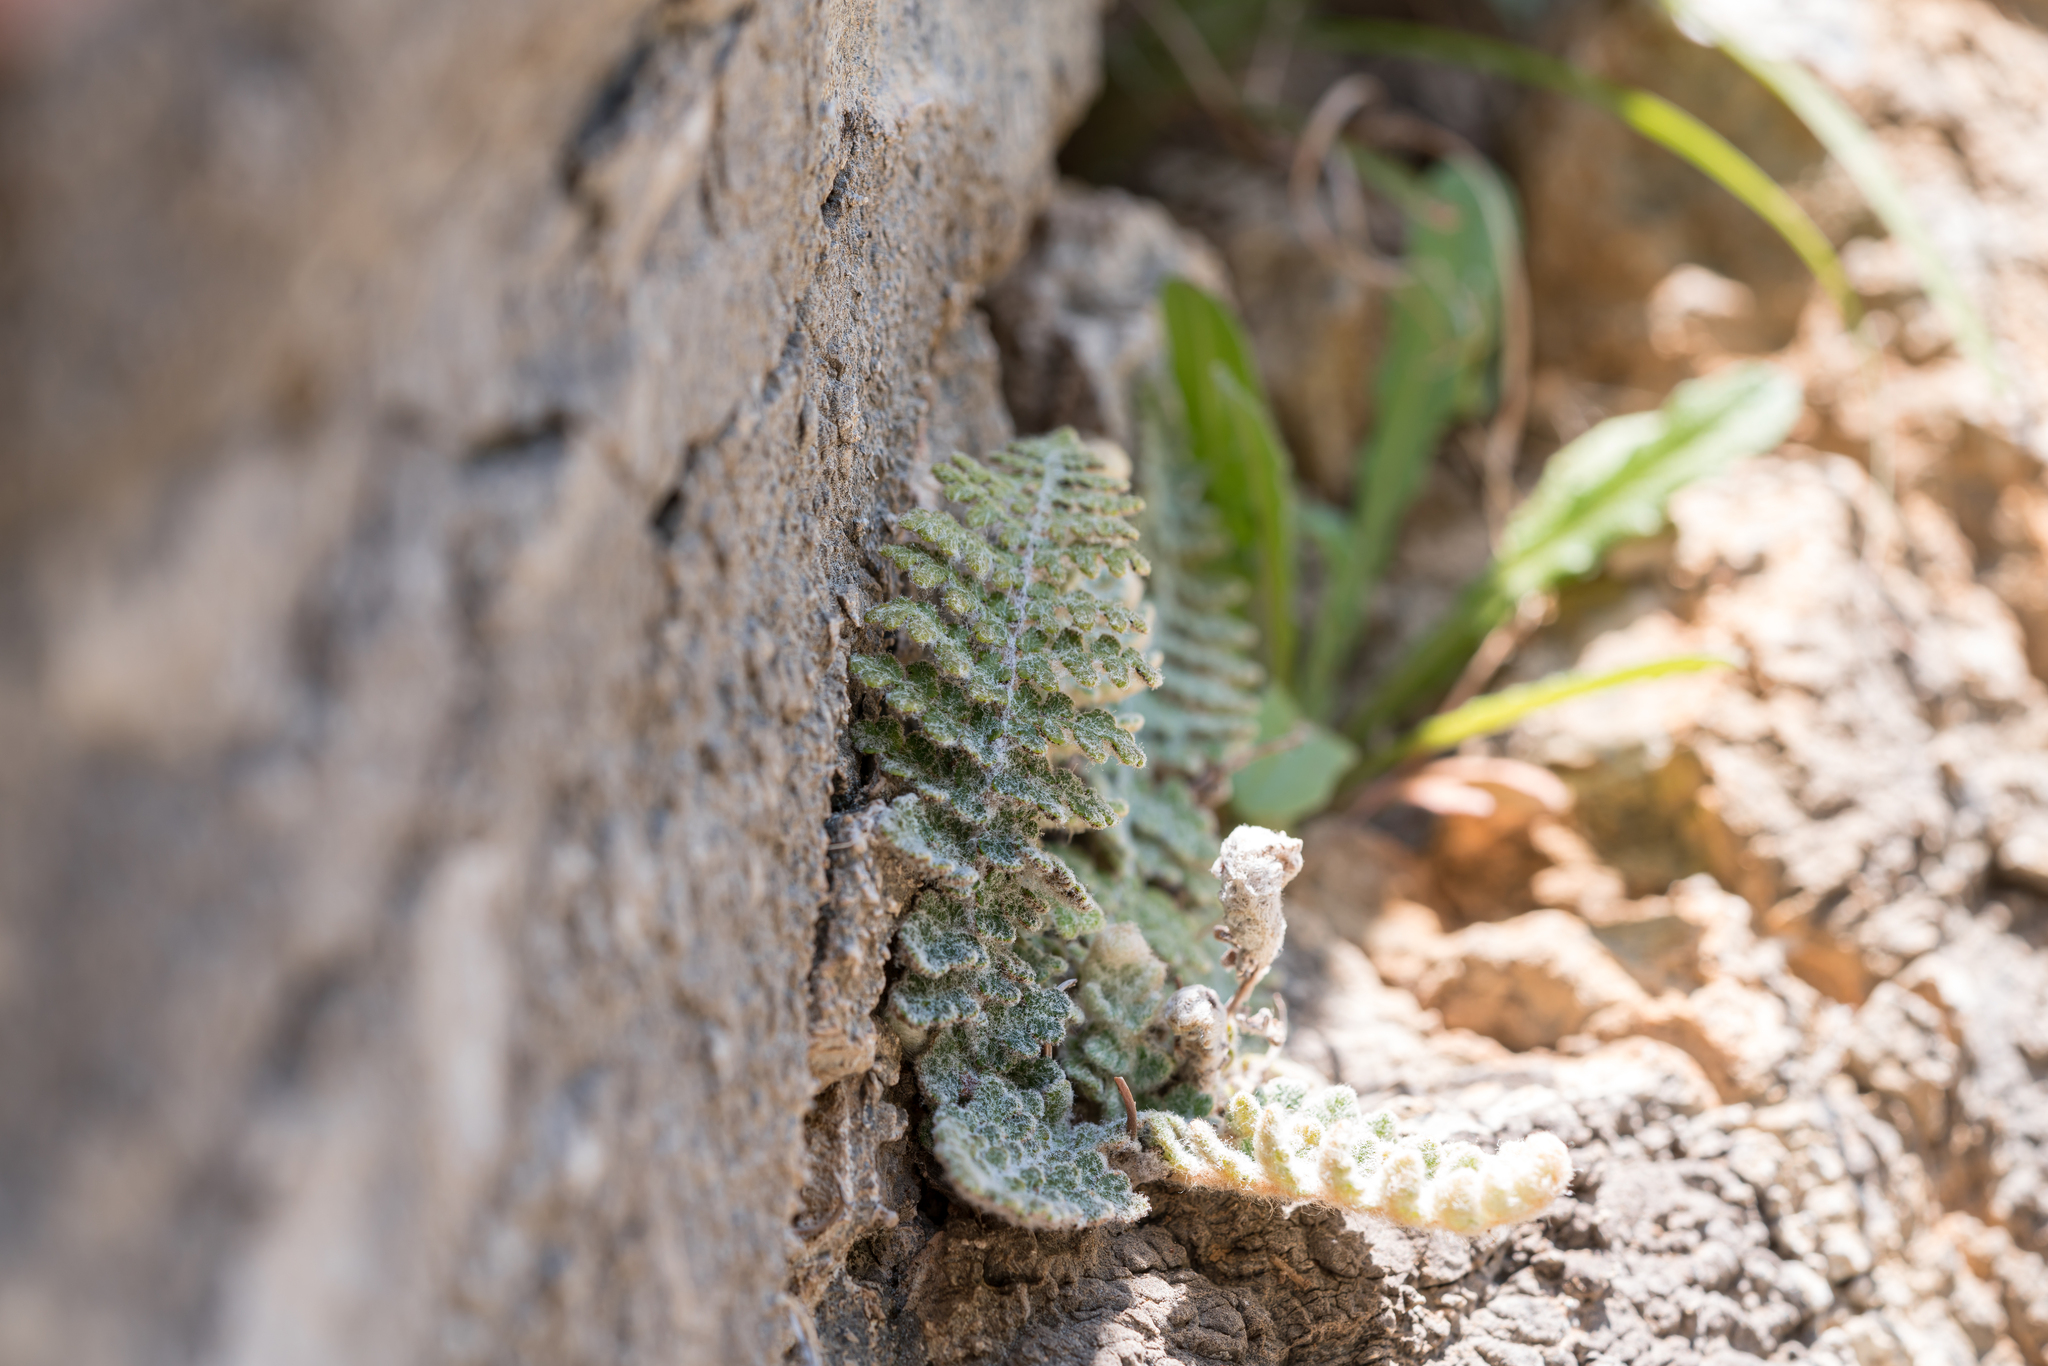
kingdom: Plantae
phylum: Tracheophyta
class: Polypodiopsida
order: Polypodiales
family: Pteridaceae
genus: Cosentinia
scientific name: Cosentinia vellea
